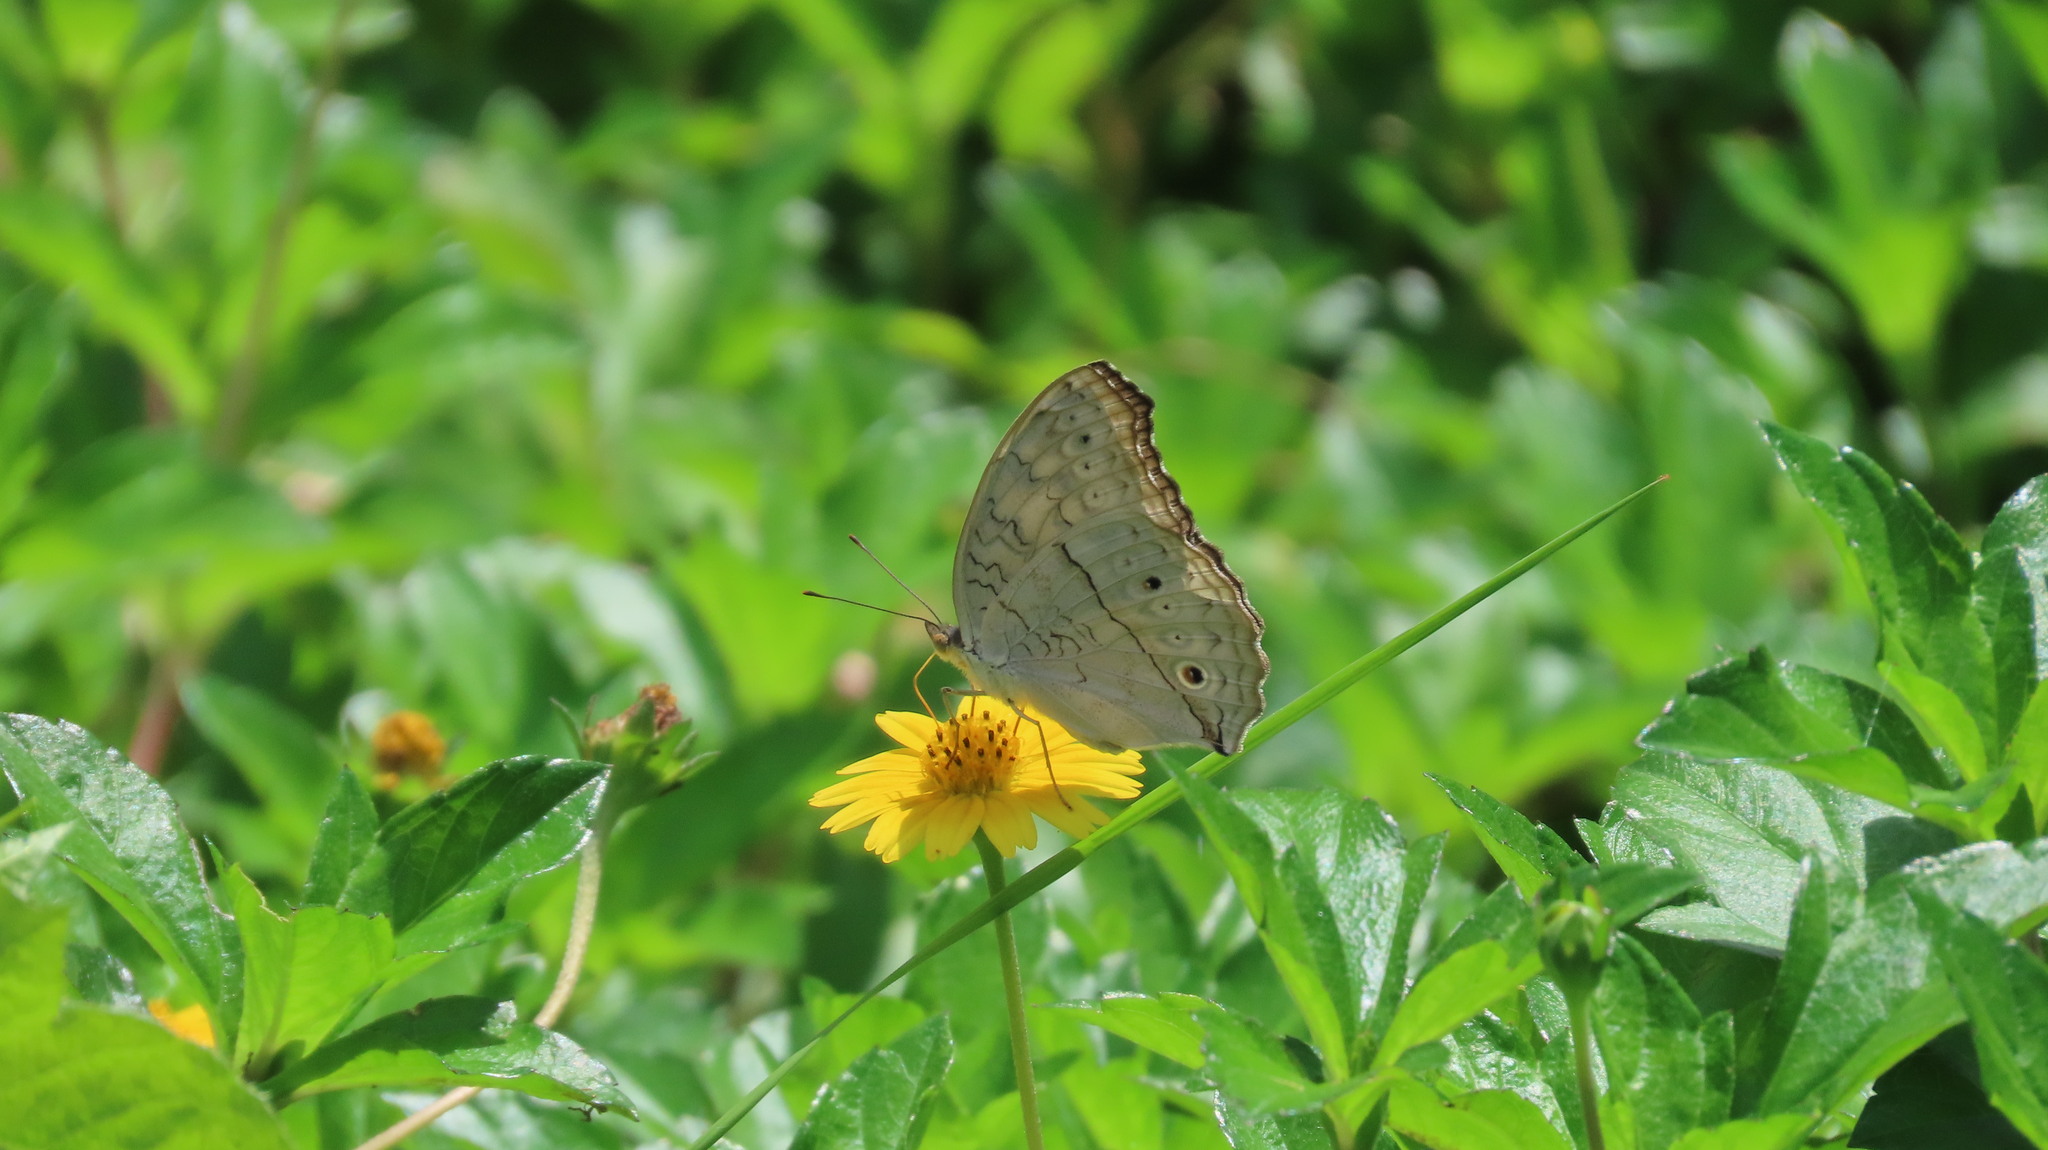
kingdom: Animalia
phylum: Arthropoda
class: Insecta
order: Lepidoptera
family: Nymphalidae
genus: Junonia
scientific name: Junonia atlites
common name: Grey pansy
